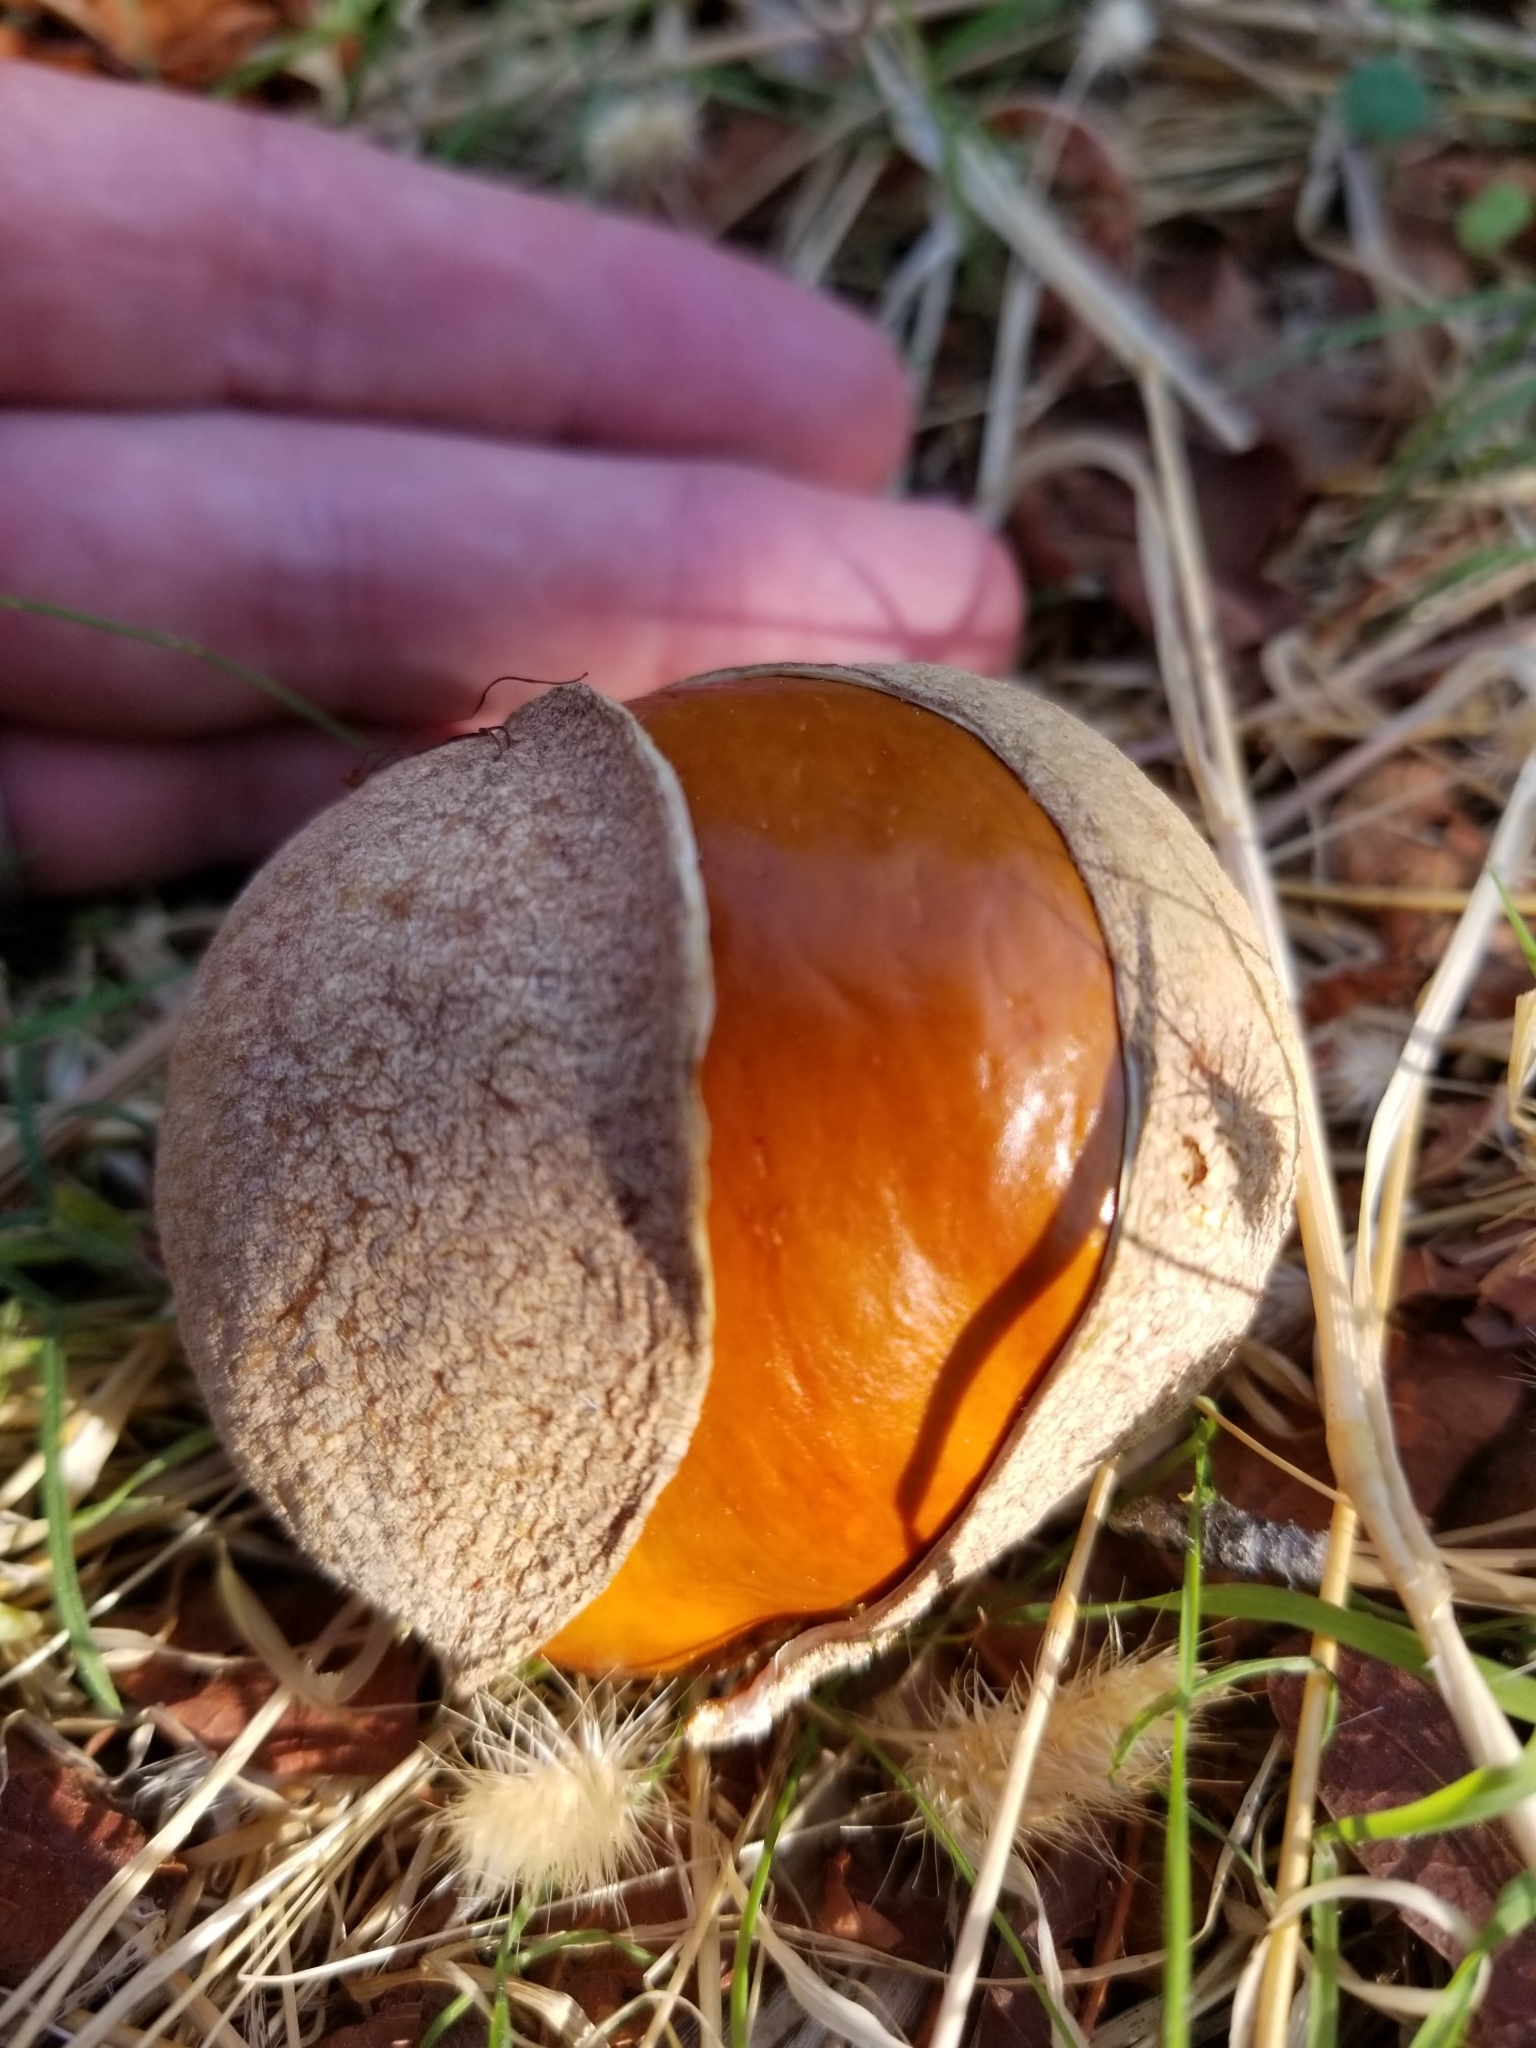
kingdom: Plantae
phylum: Tracheophyta
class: Magnoliopsida
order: Sapindales
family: Sapindaceae
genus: Aesculus
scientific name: Aesculus californica
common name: California buckeye
